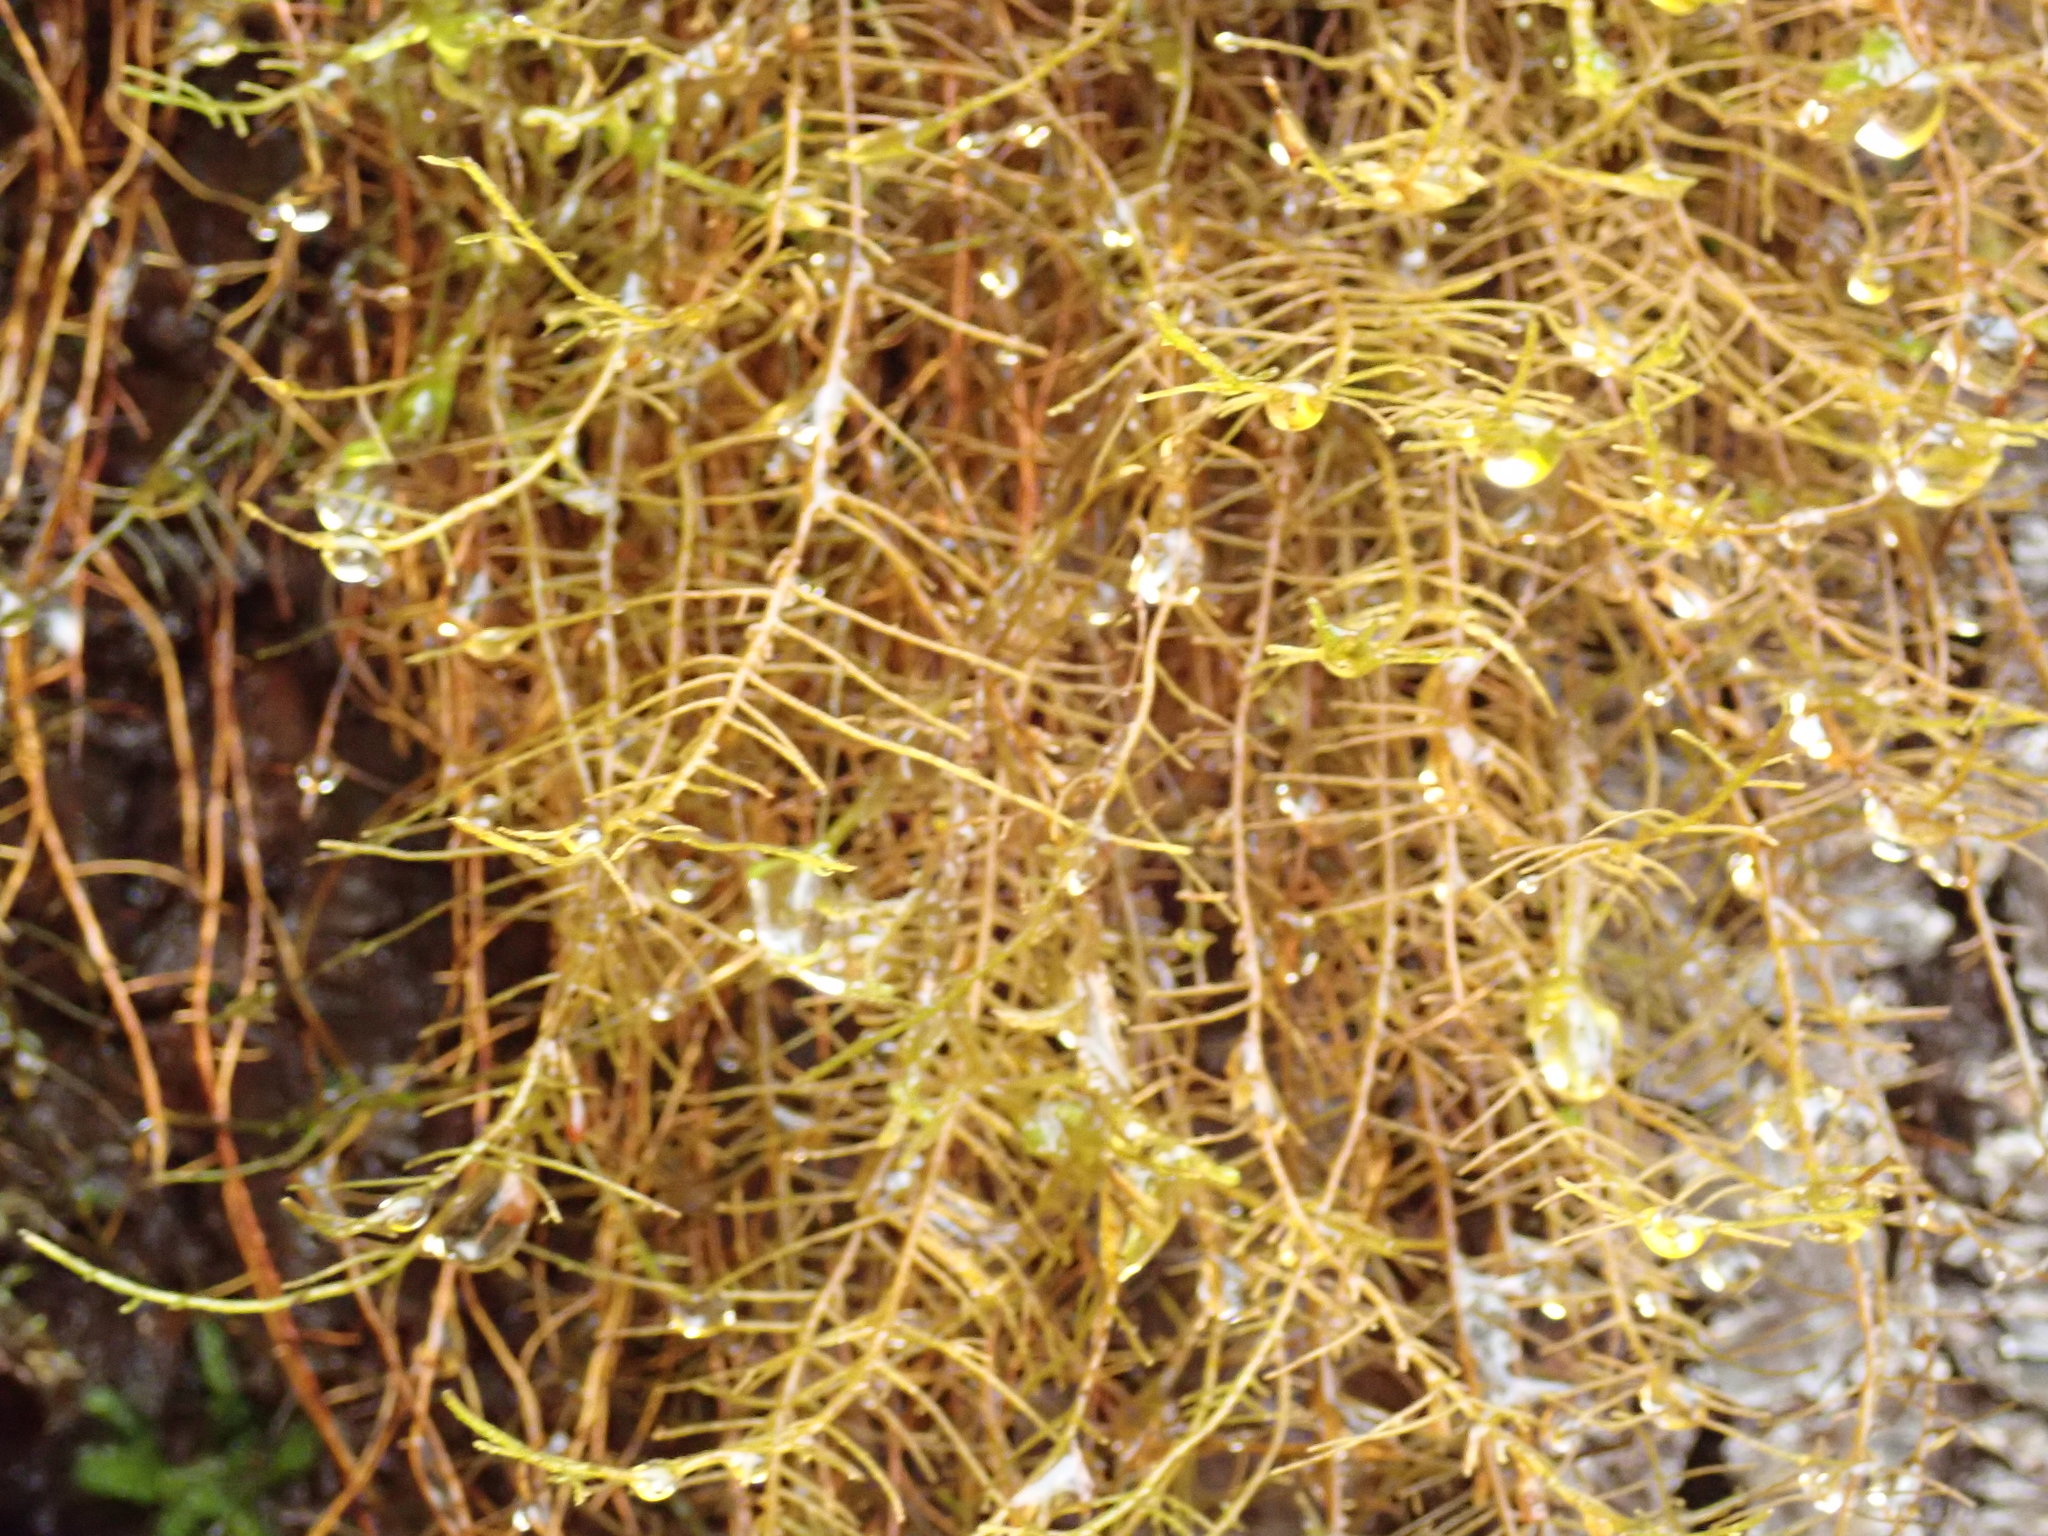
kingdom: Plantae
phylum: Bryophyta
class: Bryopsida
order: Hypnales
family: Neckeraceae
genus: Metaneckera
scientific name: Metaneckera menziesii
